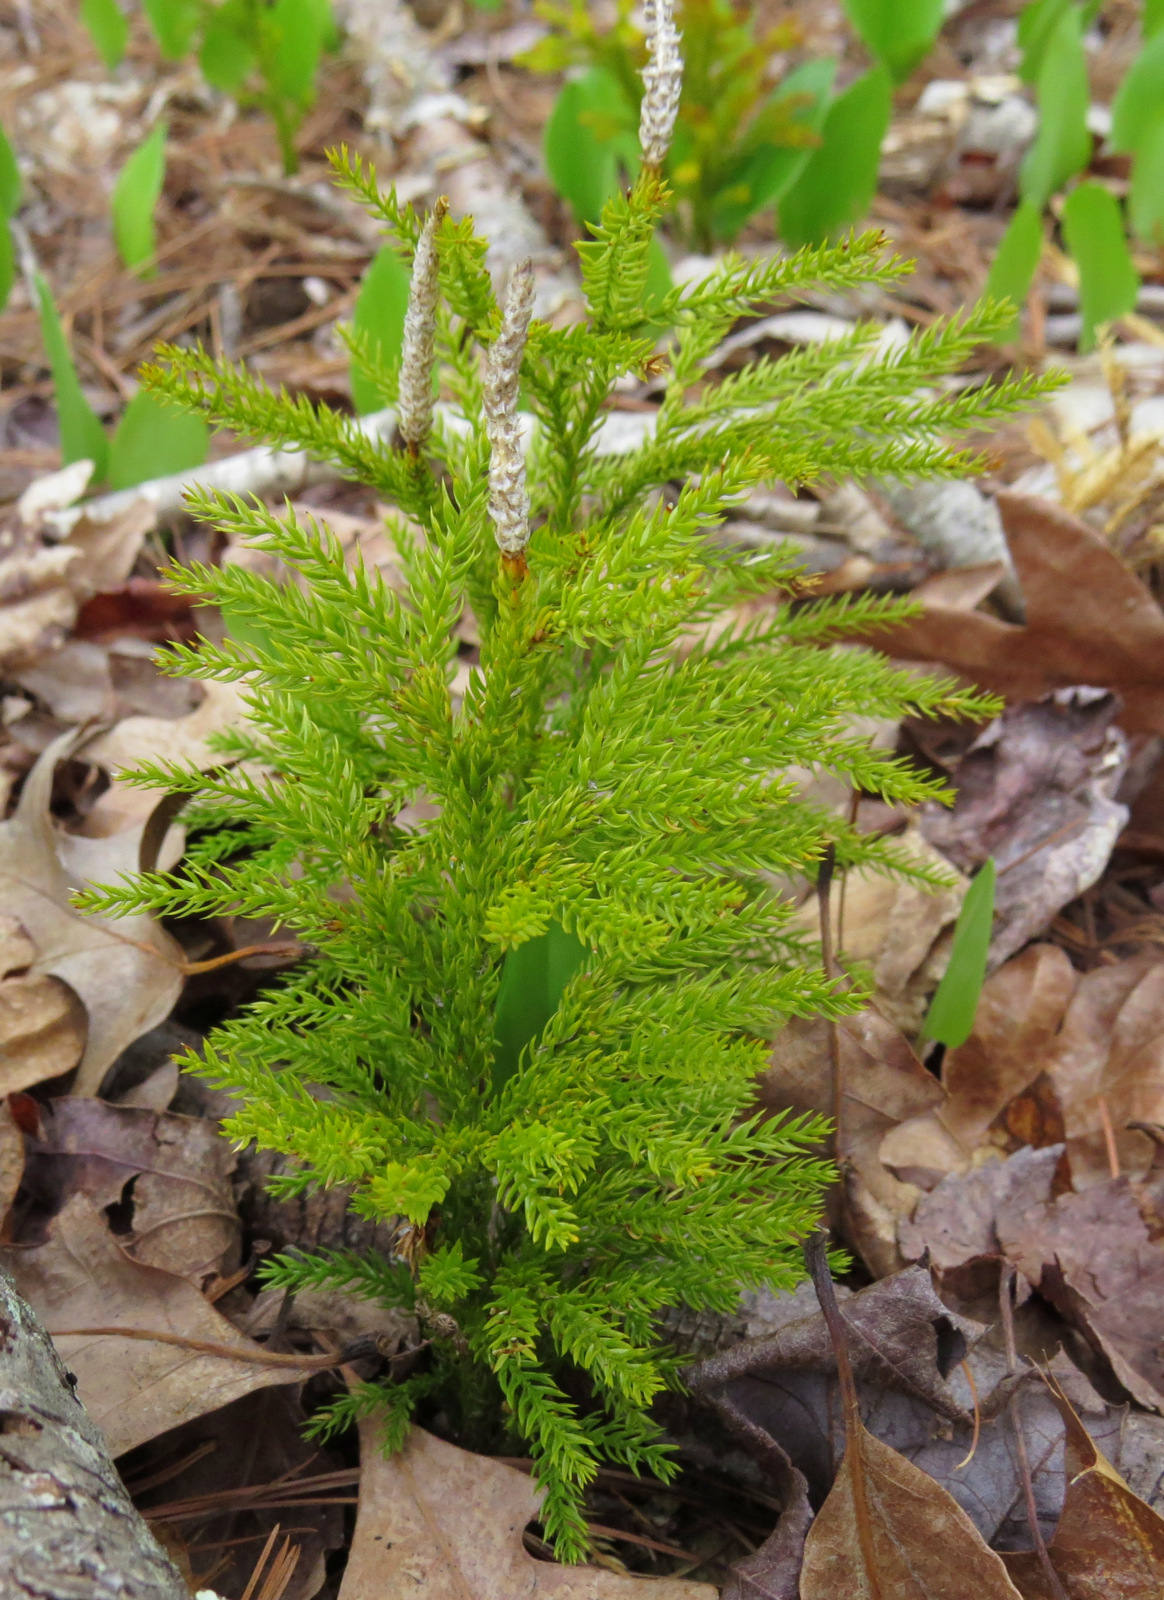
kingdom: Plantae
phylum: Tracheophyta
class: Lycopodiopsida
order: Lycopodiales
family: Lycopodiaceae
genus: Dendrolycopodium
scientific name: Dendrolycopodium hickeyi
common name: Hickey's clubmoss
